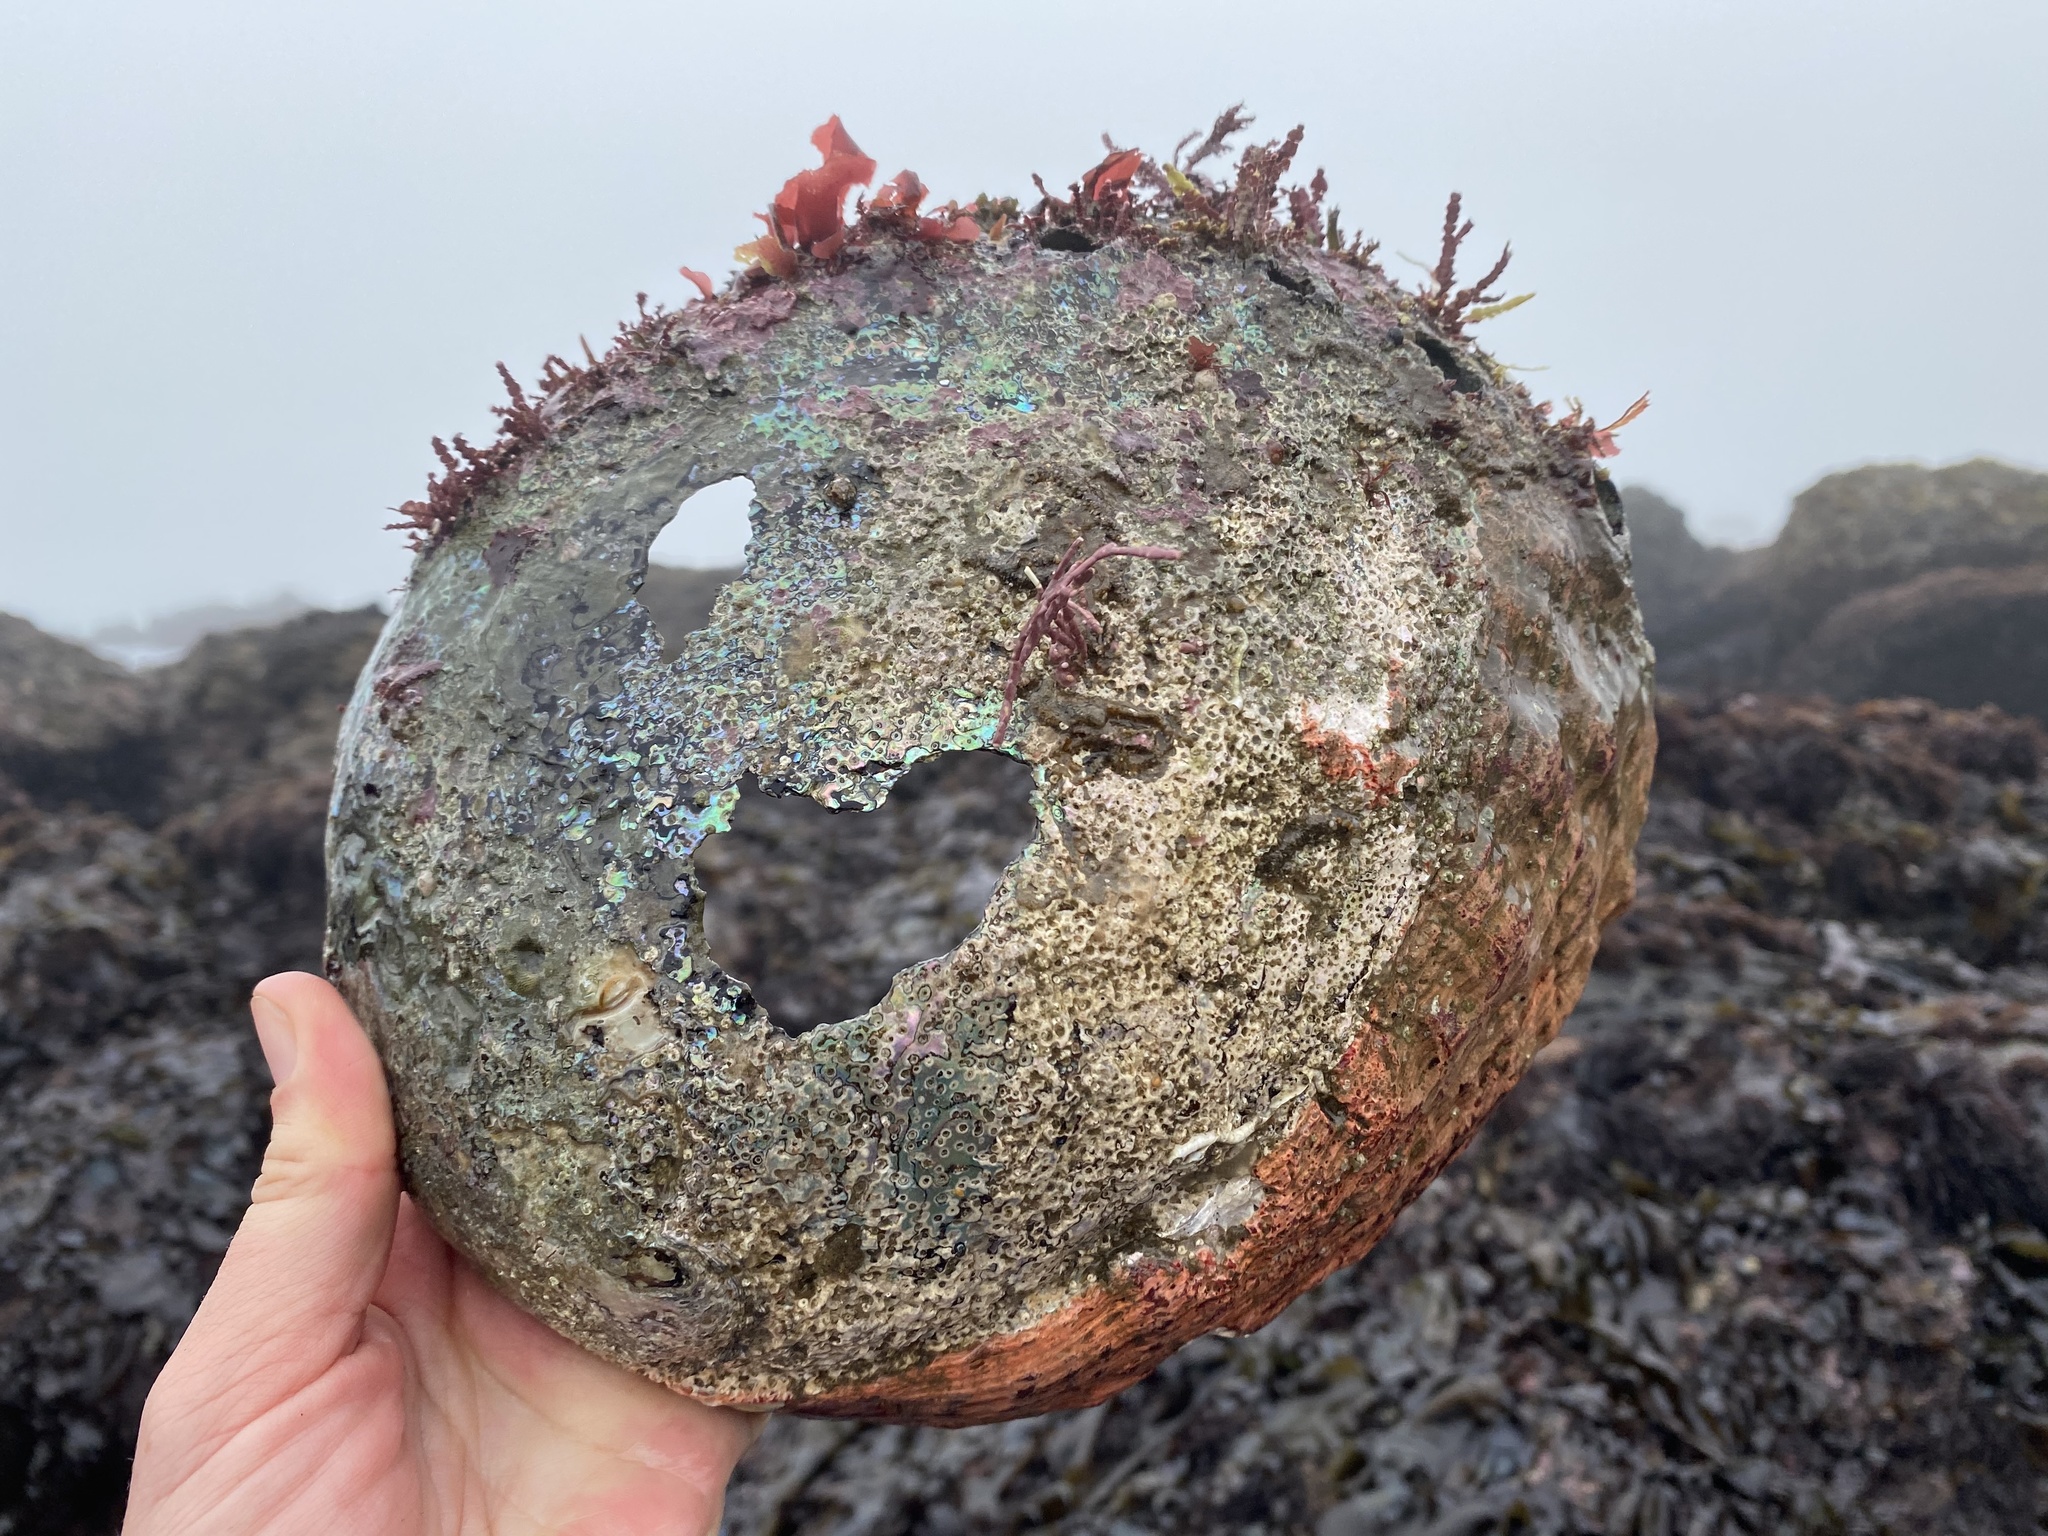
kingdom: Animalia
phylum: Mollusca
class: Gastropoda
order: Lepetellida
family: Haliotidae
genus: Haliotis
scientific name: Haliotis rufescens
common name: Red abalone
